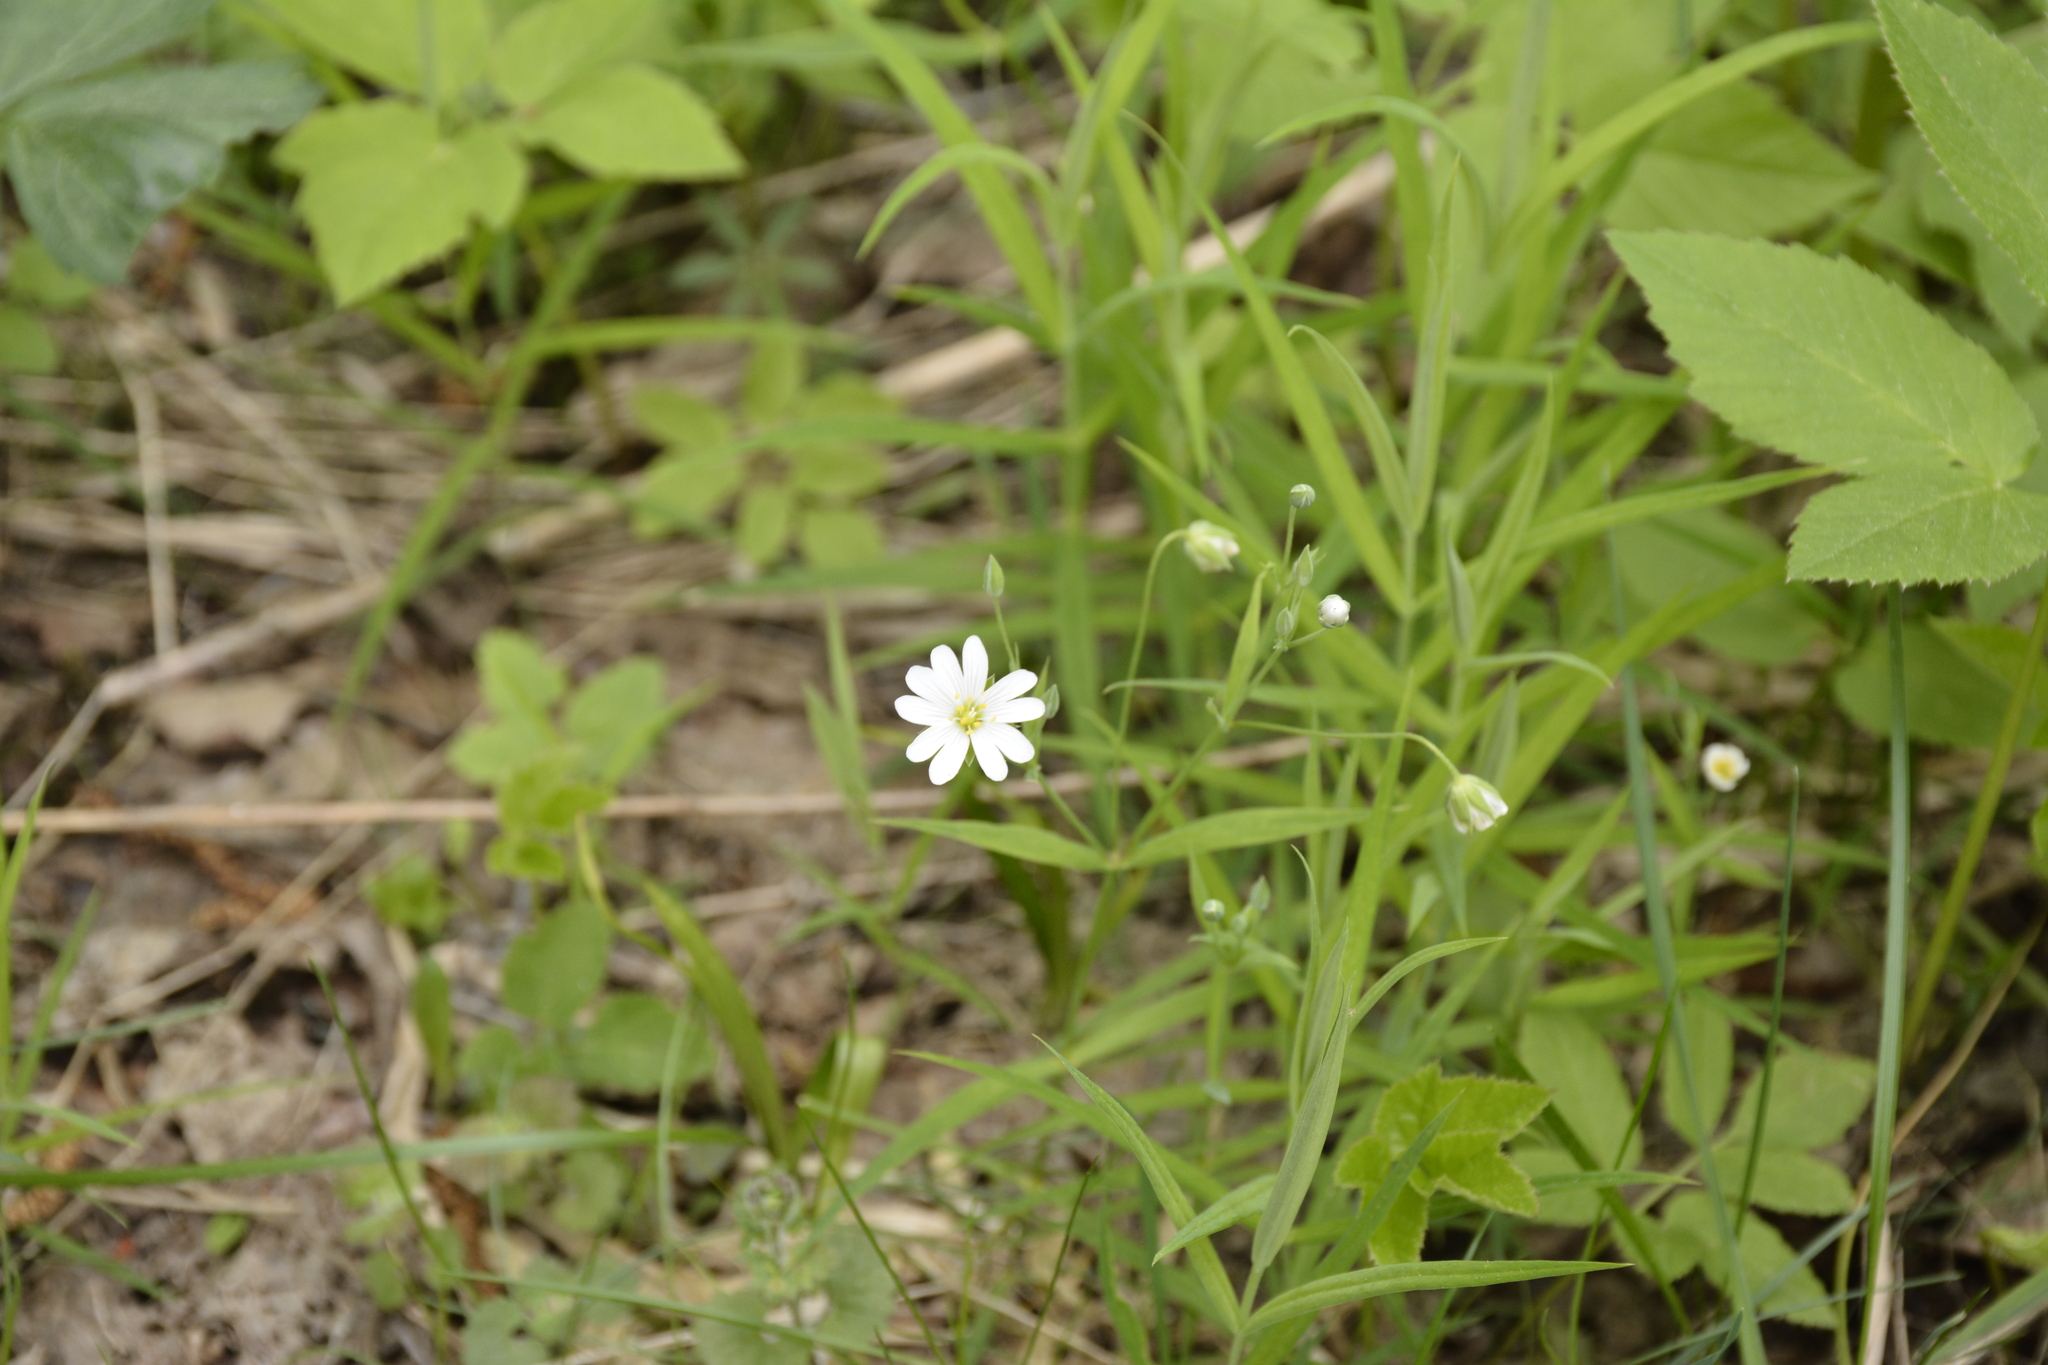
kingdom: Plantae
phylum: Tracheophyta
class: Magnoliopsida
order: Caryophyllales
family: Caryophyllaceae
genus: Rabelera
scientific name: Rabelera holostea
